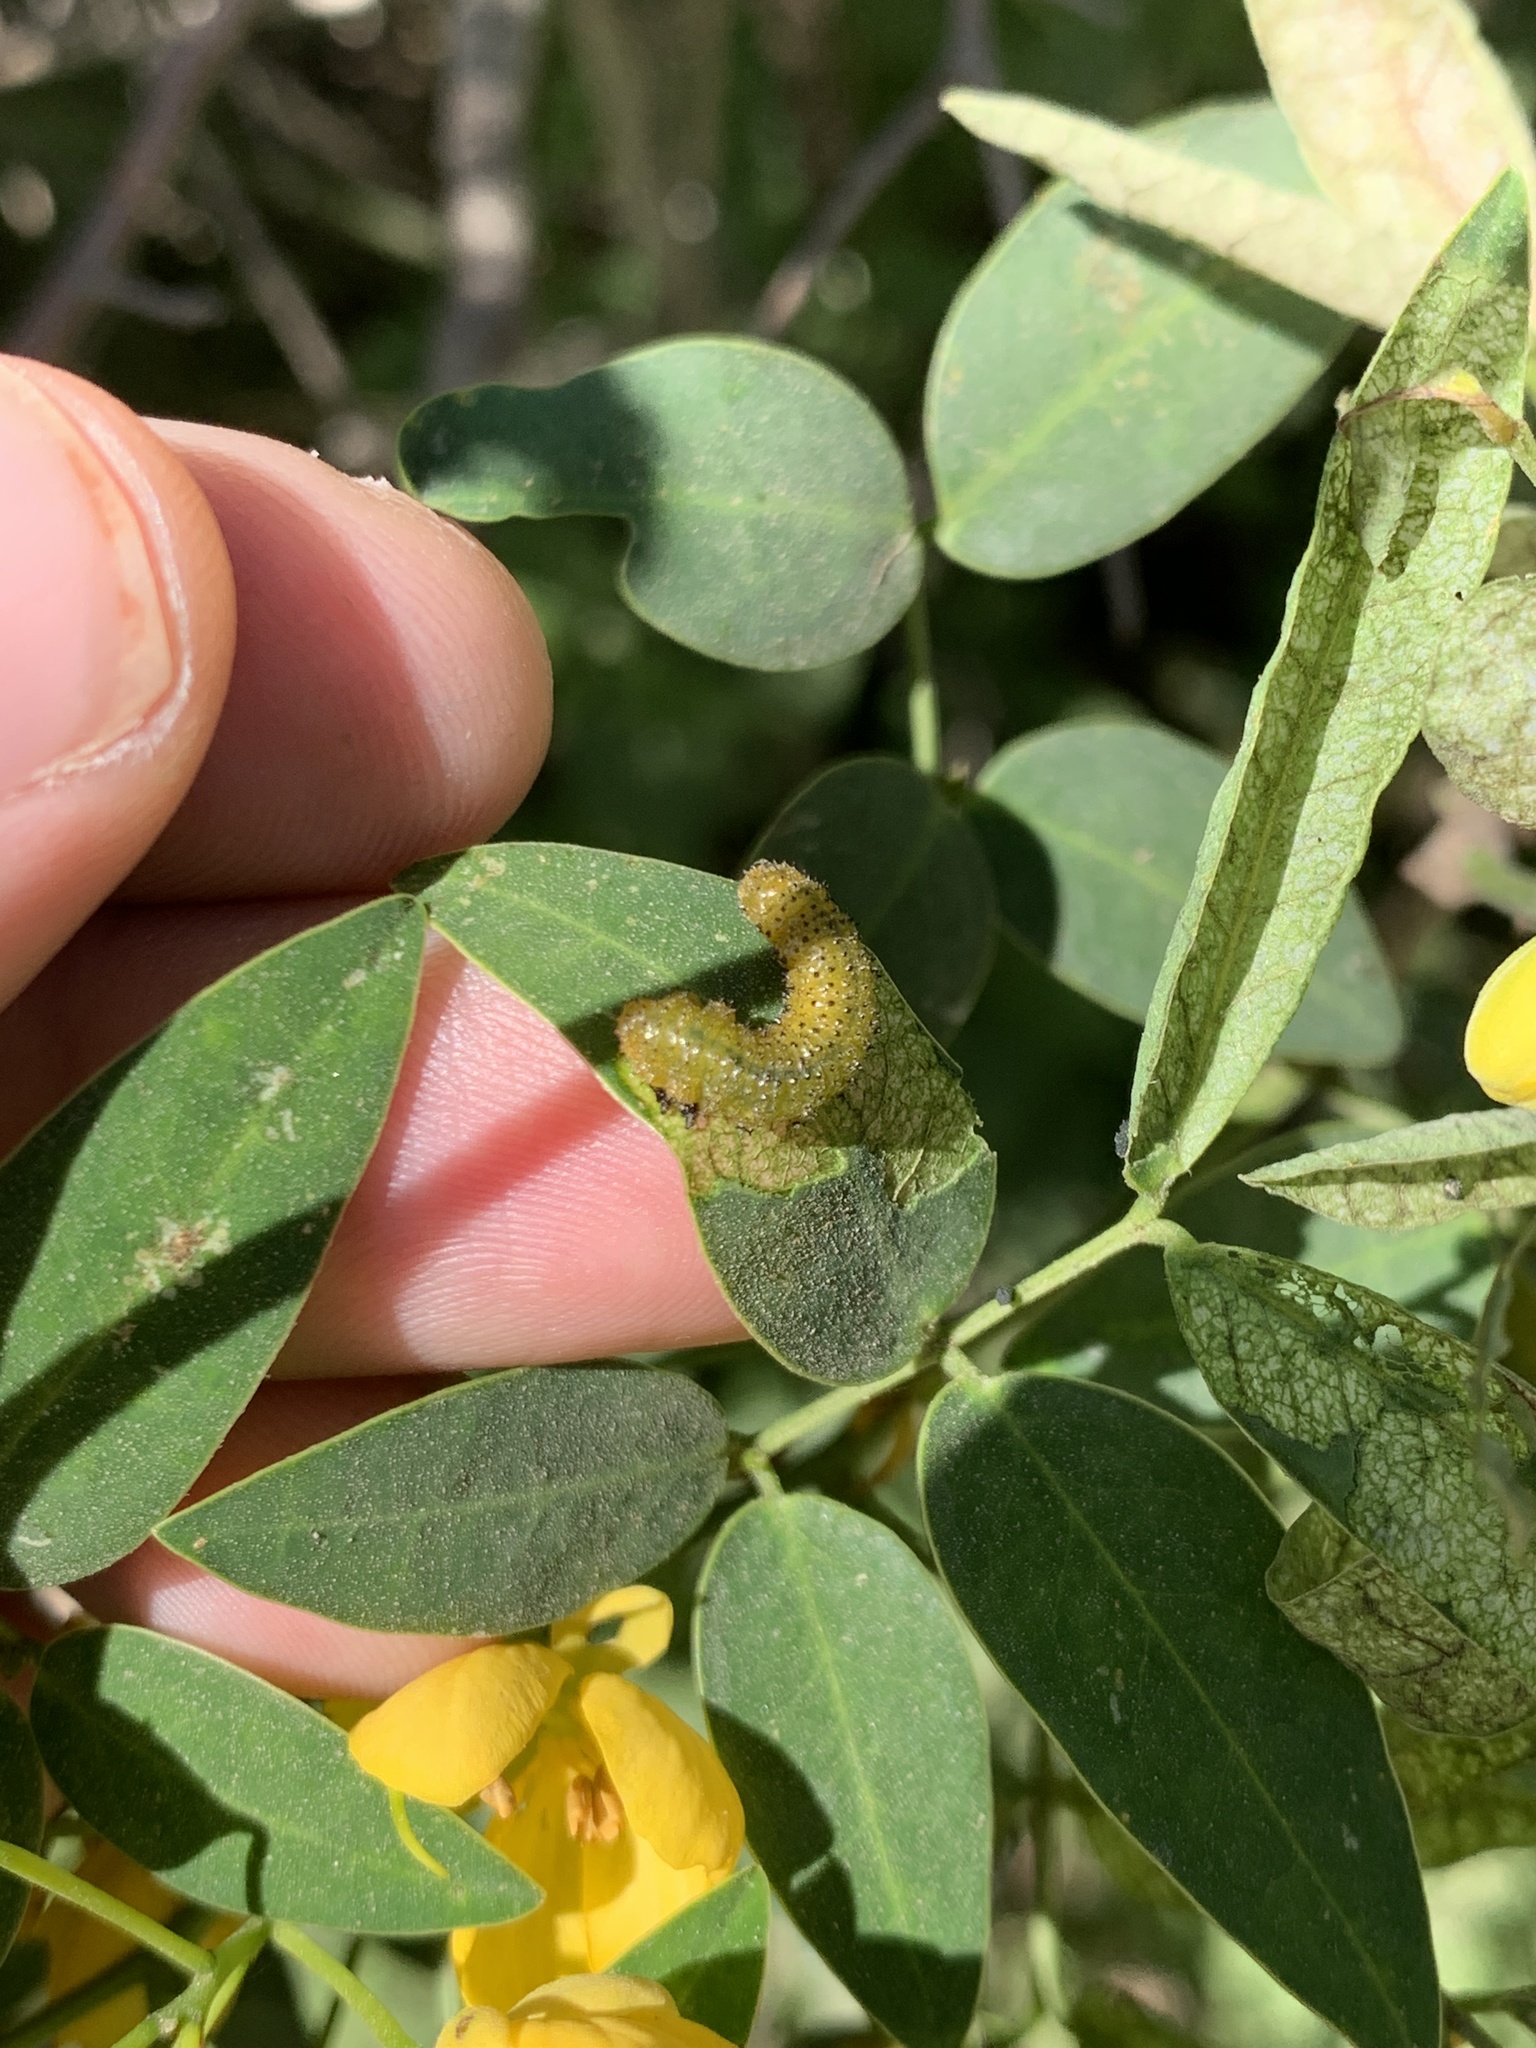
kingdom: Animalia
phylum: Arthropoda
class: Insecta
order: Hymenoptera
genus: Adurgoa
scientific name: Adurgoa
